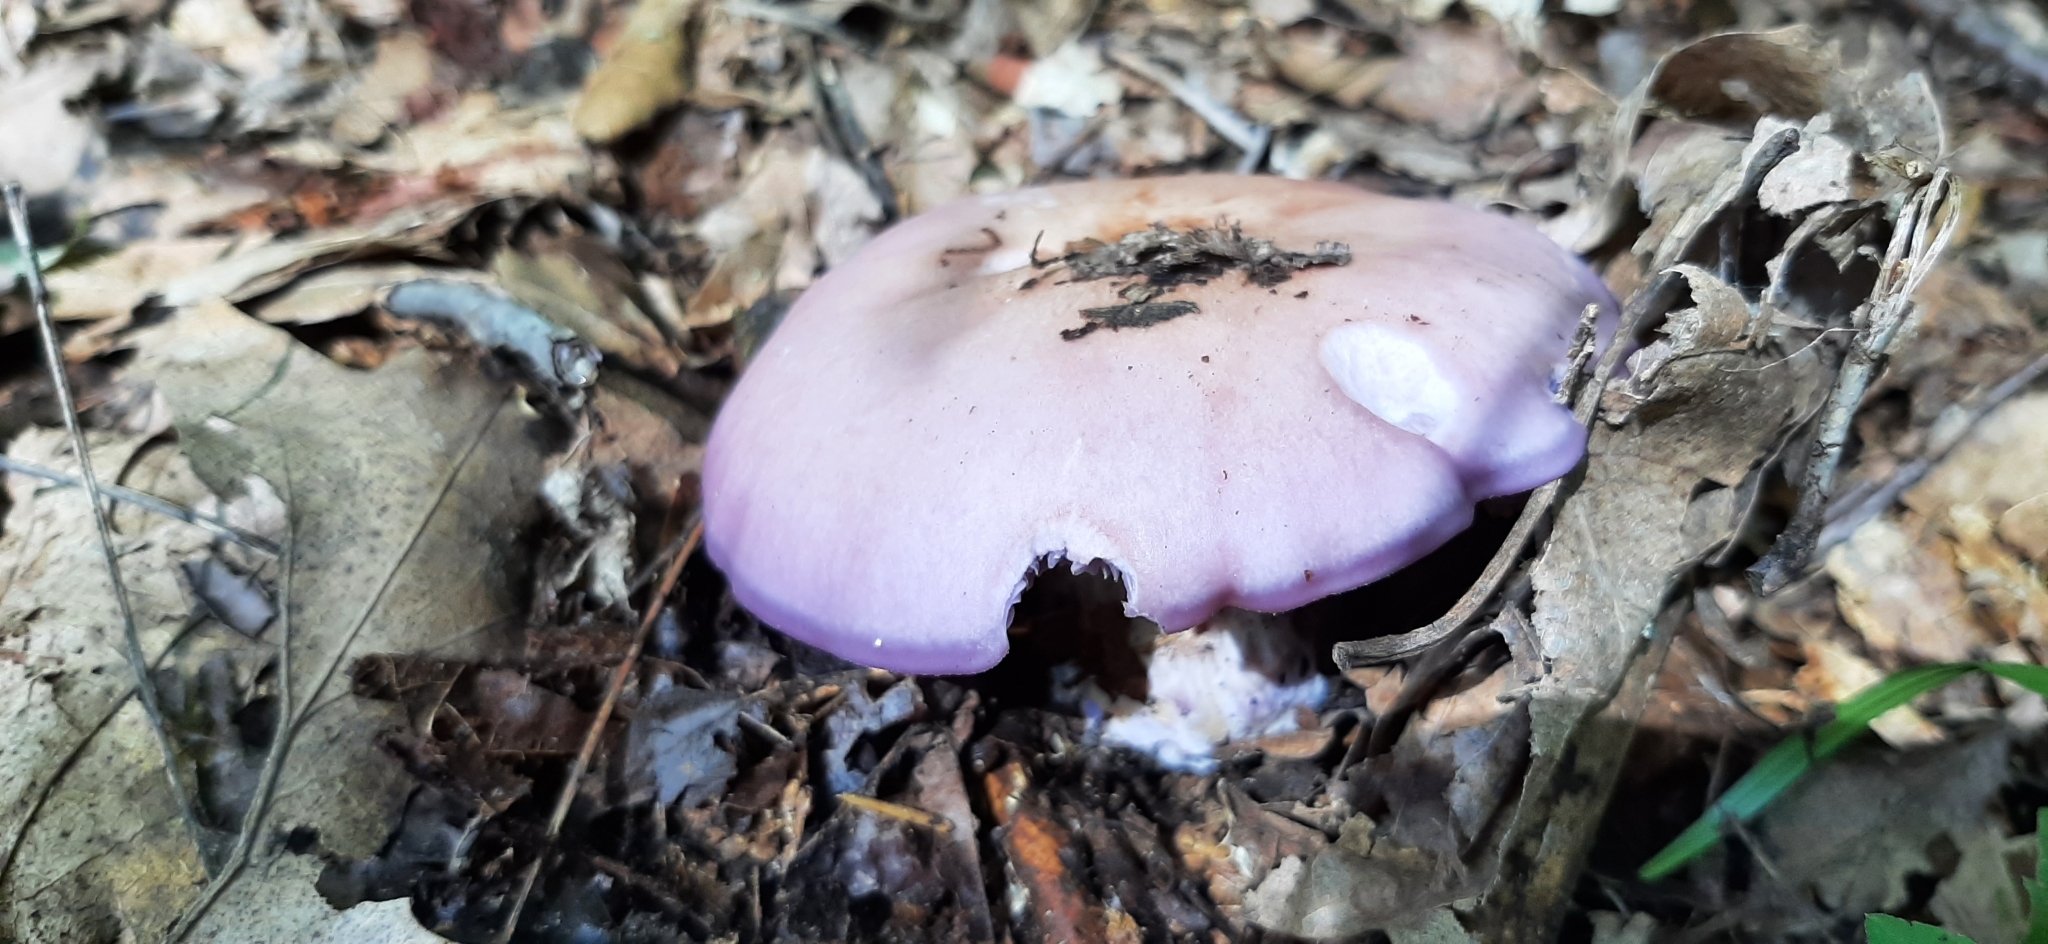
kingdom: Fungi
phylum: Basidiomycota
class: Agaricomycetes
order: Agaricales
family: Tricholomataceae
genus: Collybia
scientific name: Collybia
